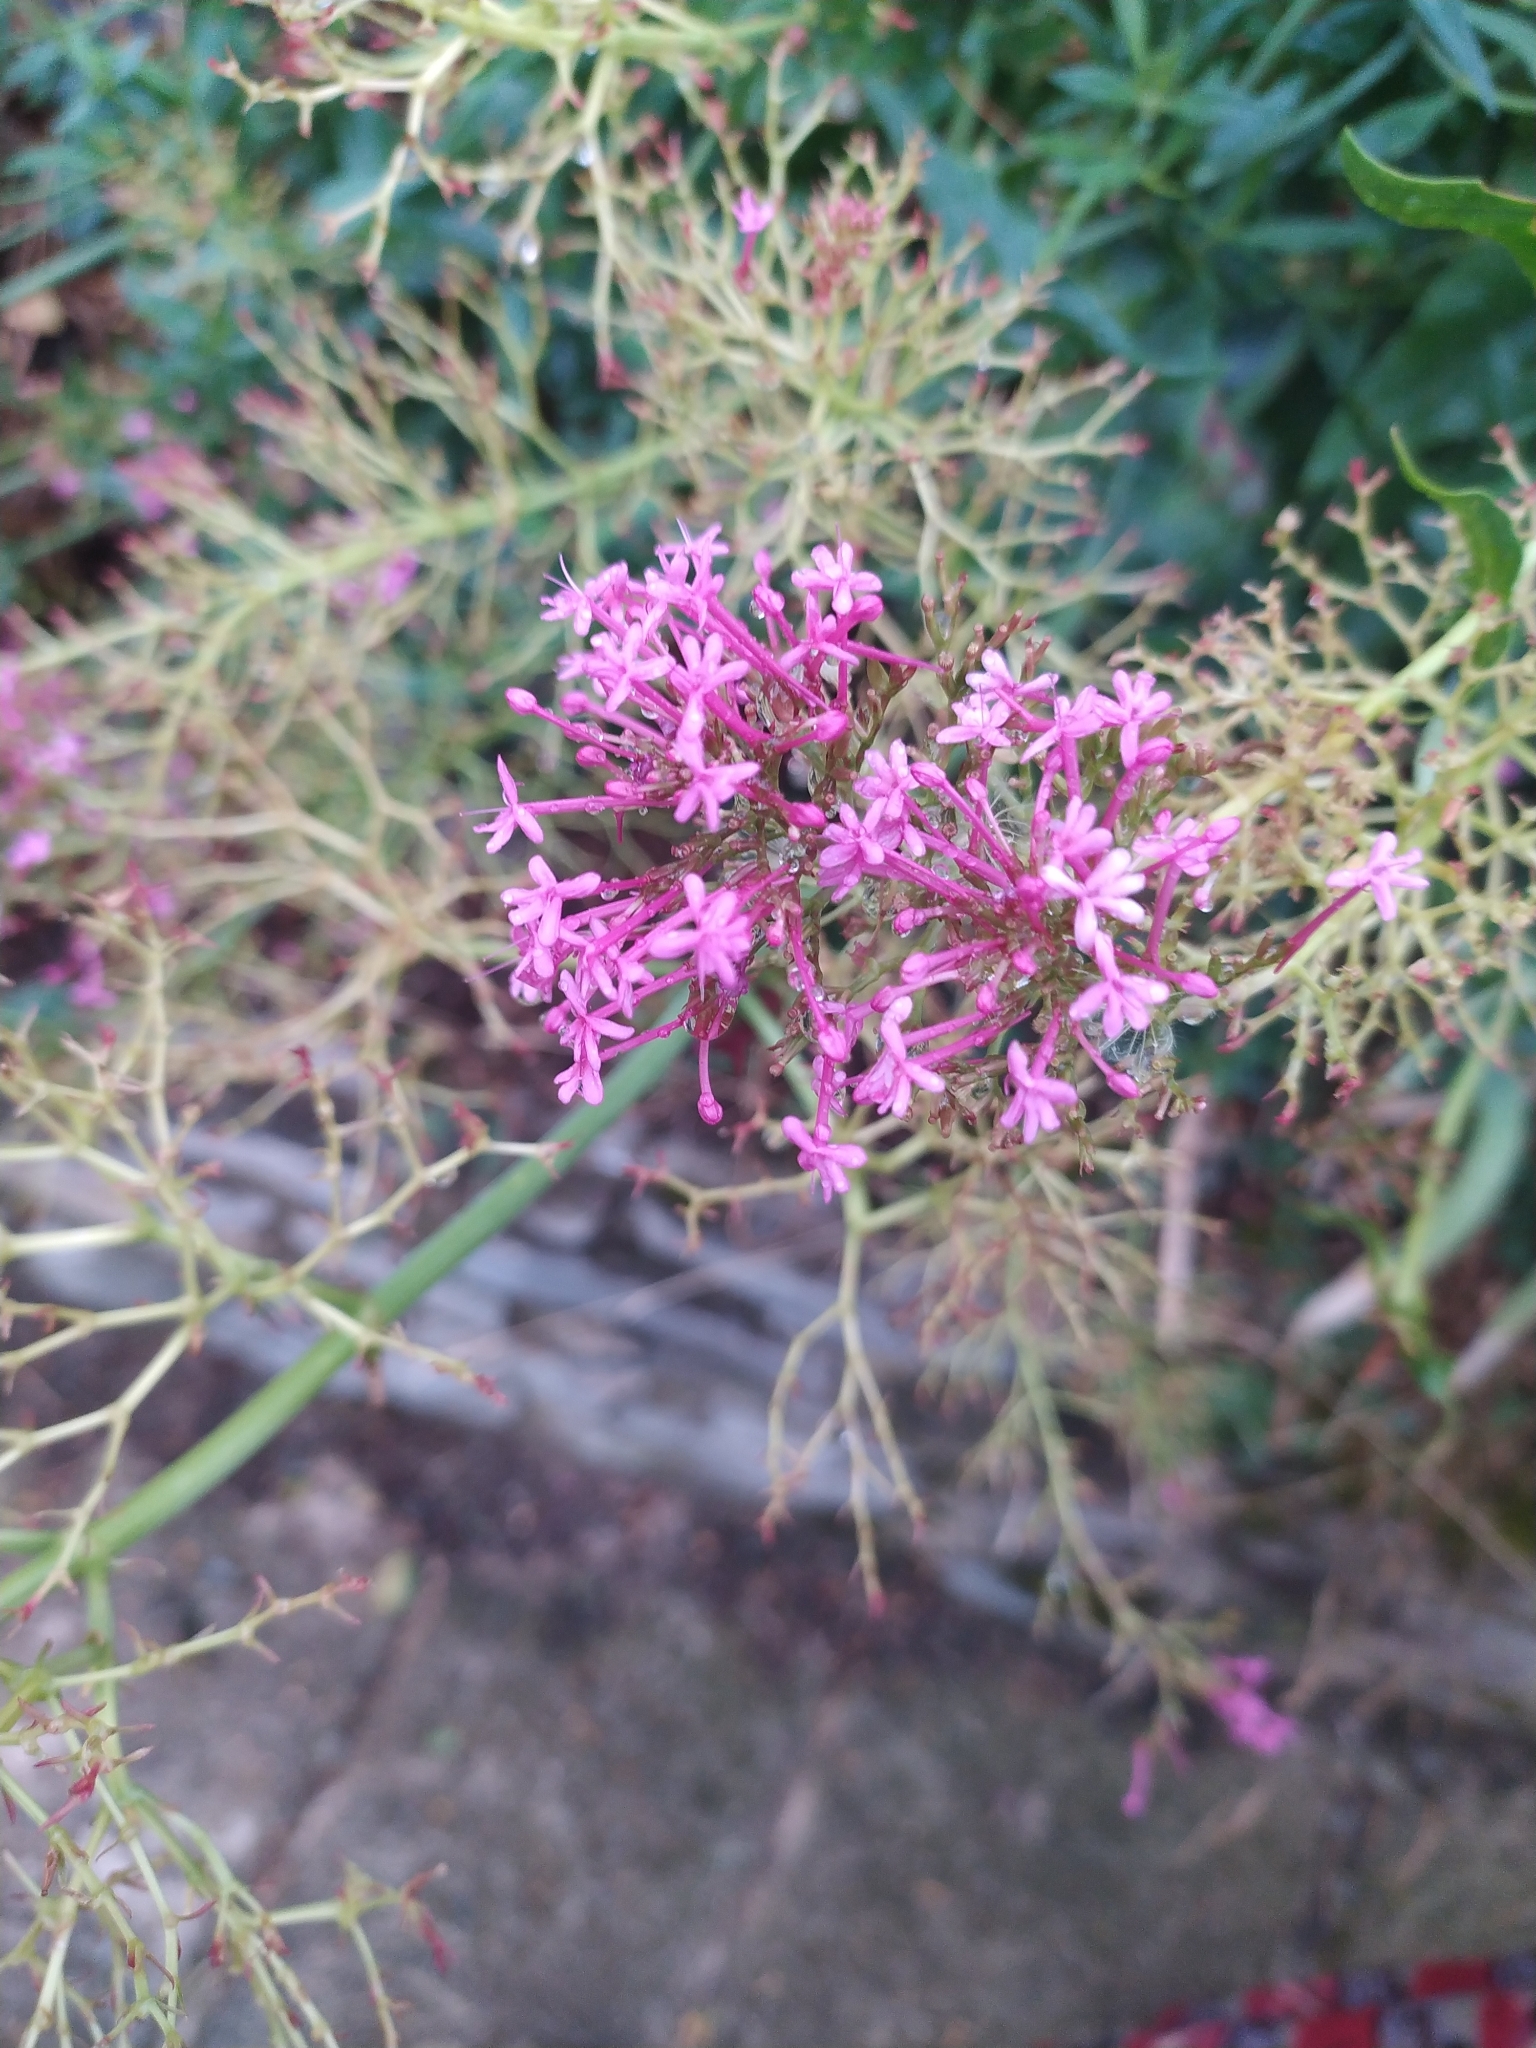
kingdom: Plantae
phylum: Tracheophyta
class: Magnoliopsida
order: Dipsacales
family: Caprifoliaceae
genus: Centranthus
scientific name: Centranthus ruber
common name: Red valerian
